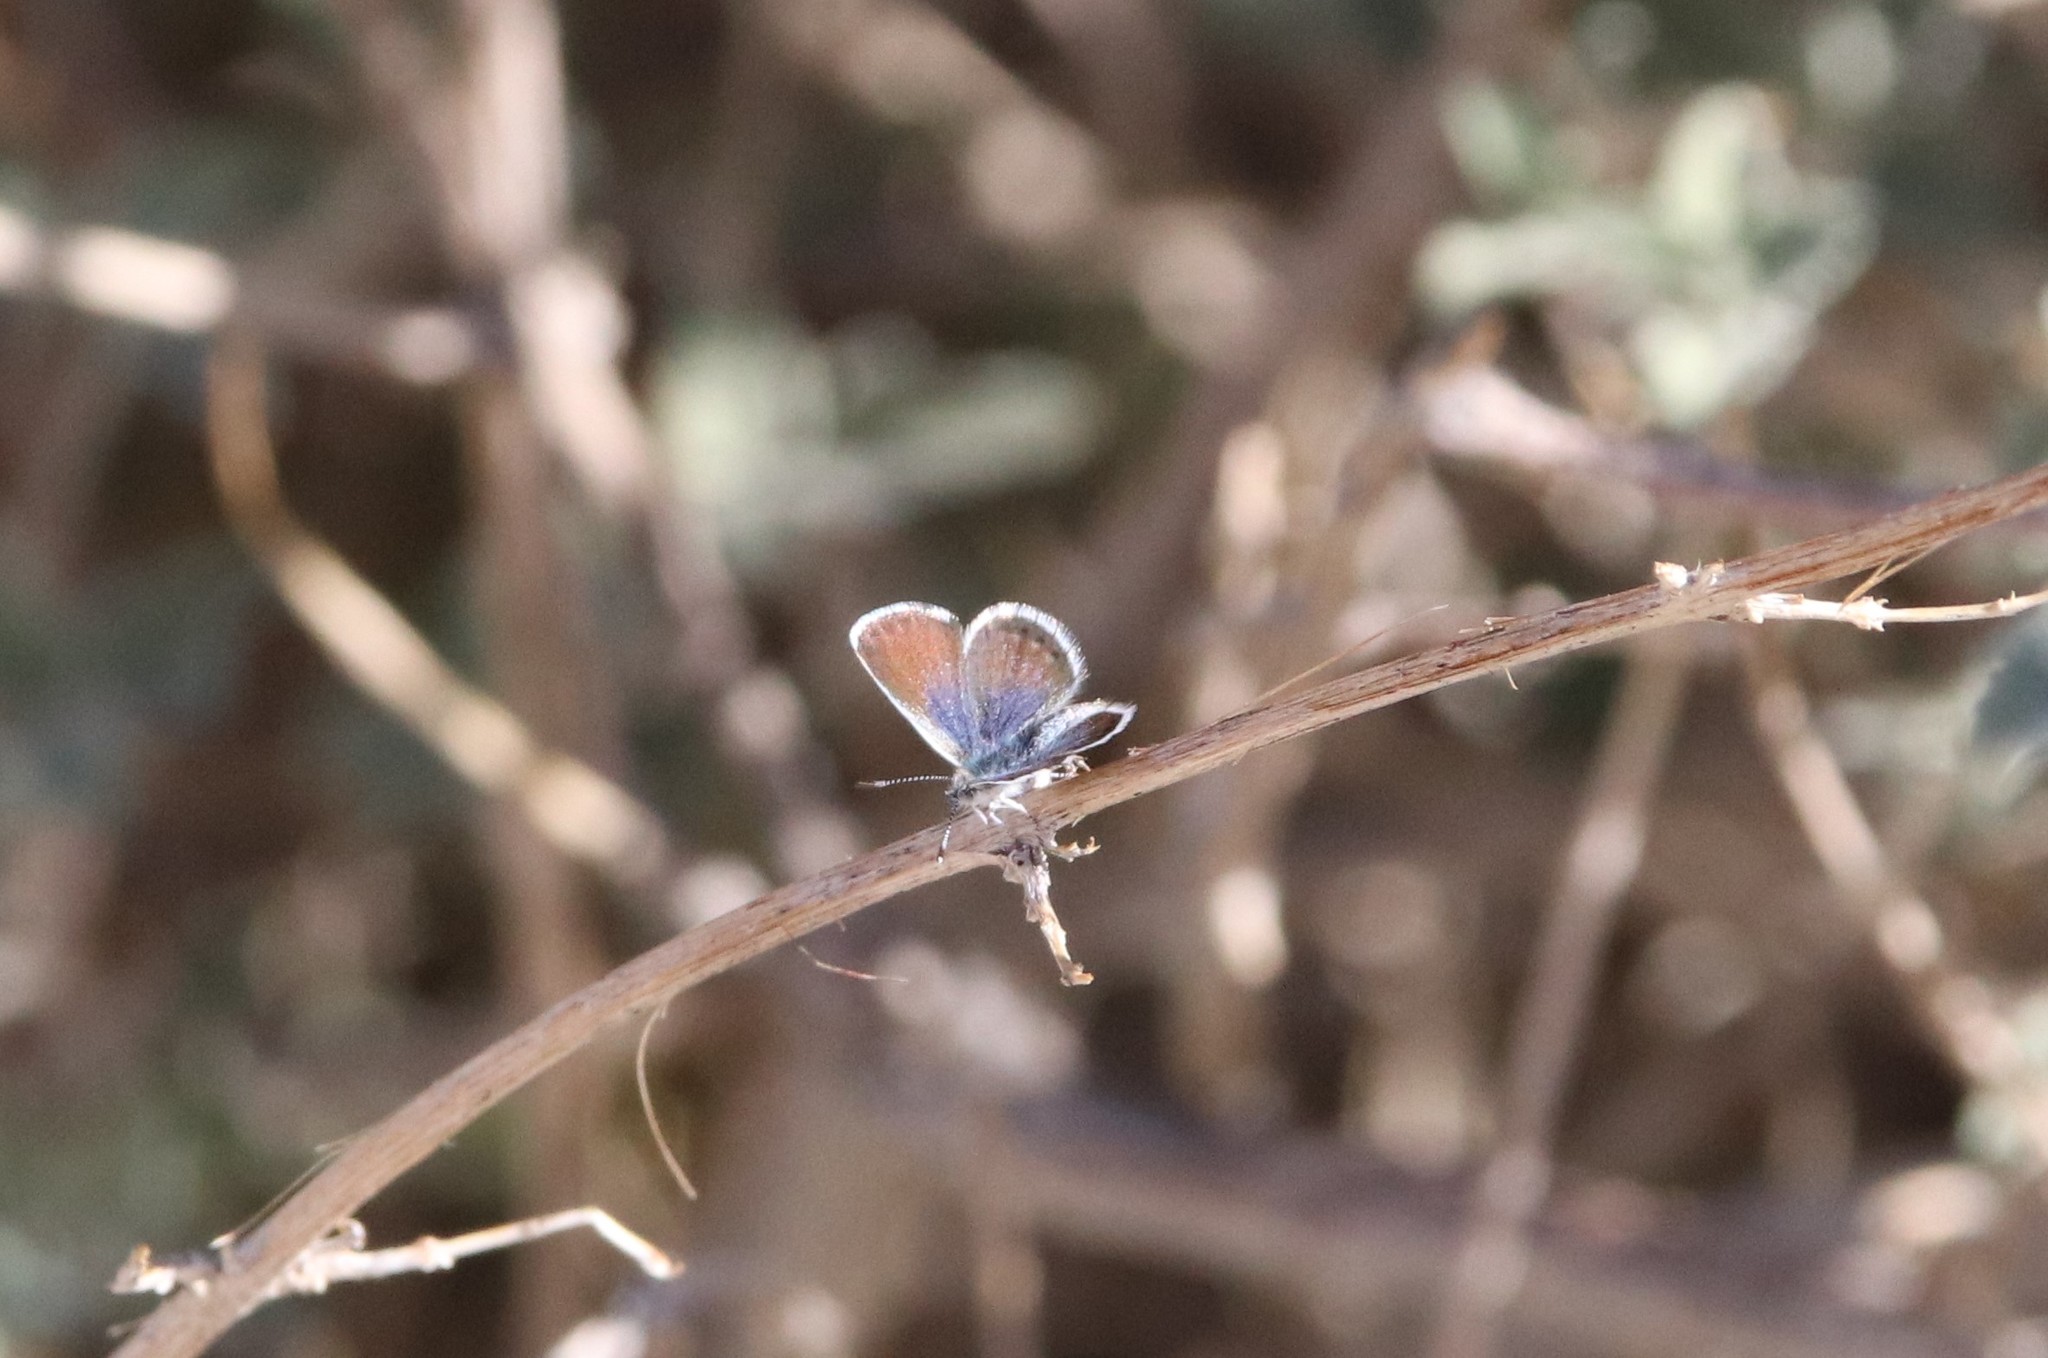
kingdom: Animalia
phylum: Arthropoda
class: Insecta
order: Lepidoptera
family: Lycaenidae
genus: Brephidium
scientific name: Brephidium exilis
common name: Pygmy blue
